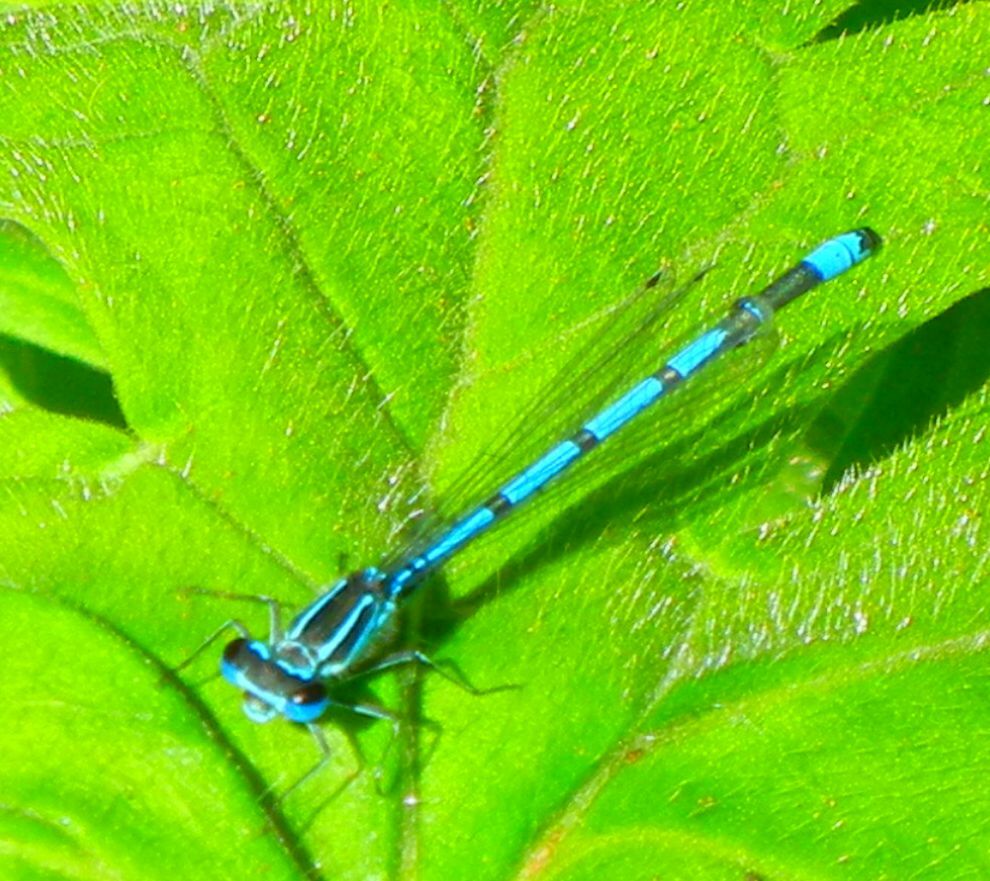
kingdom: Animalia
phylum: Arthropoda
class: Insecta
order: Odonata
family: Coenagrionidae
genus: Coenagrion
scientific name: Coenagrion puella
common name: Azure damselfly
